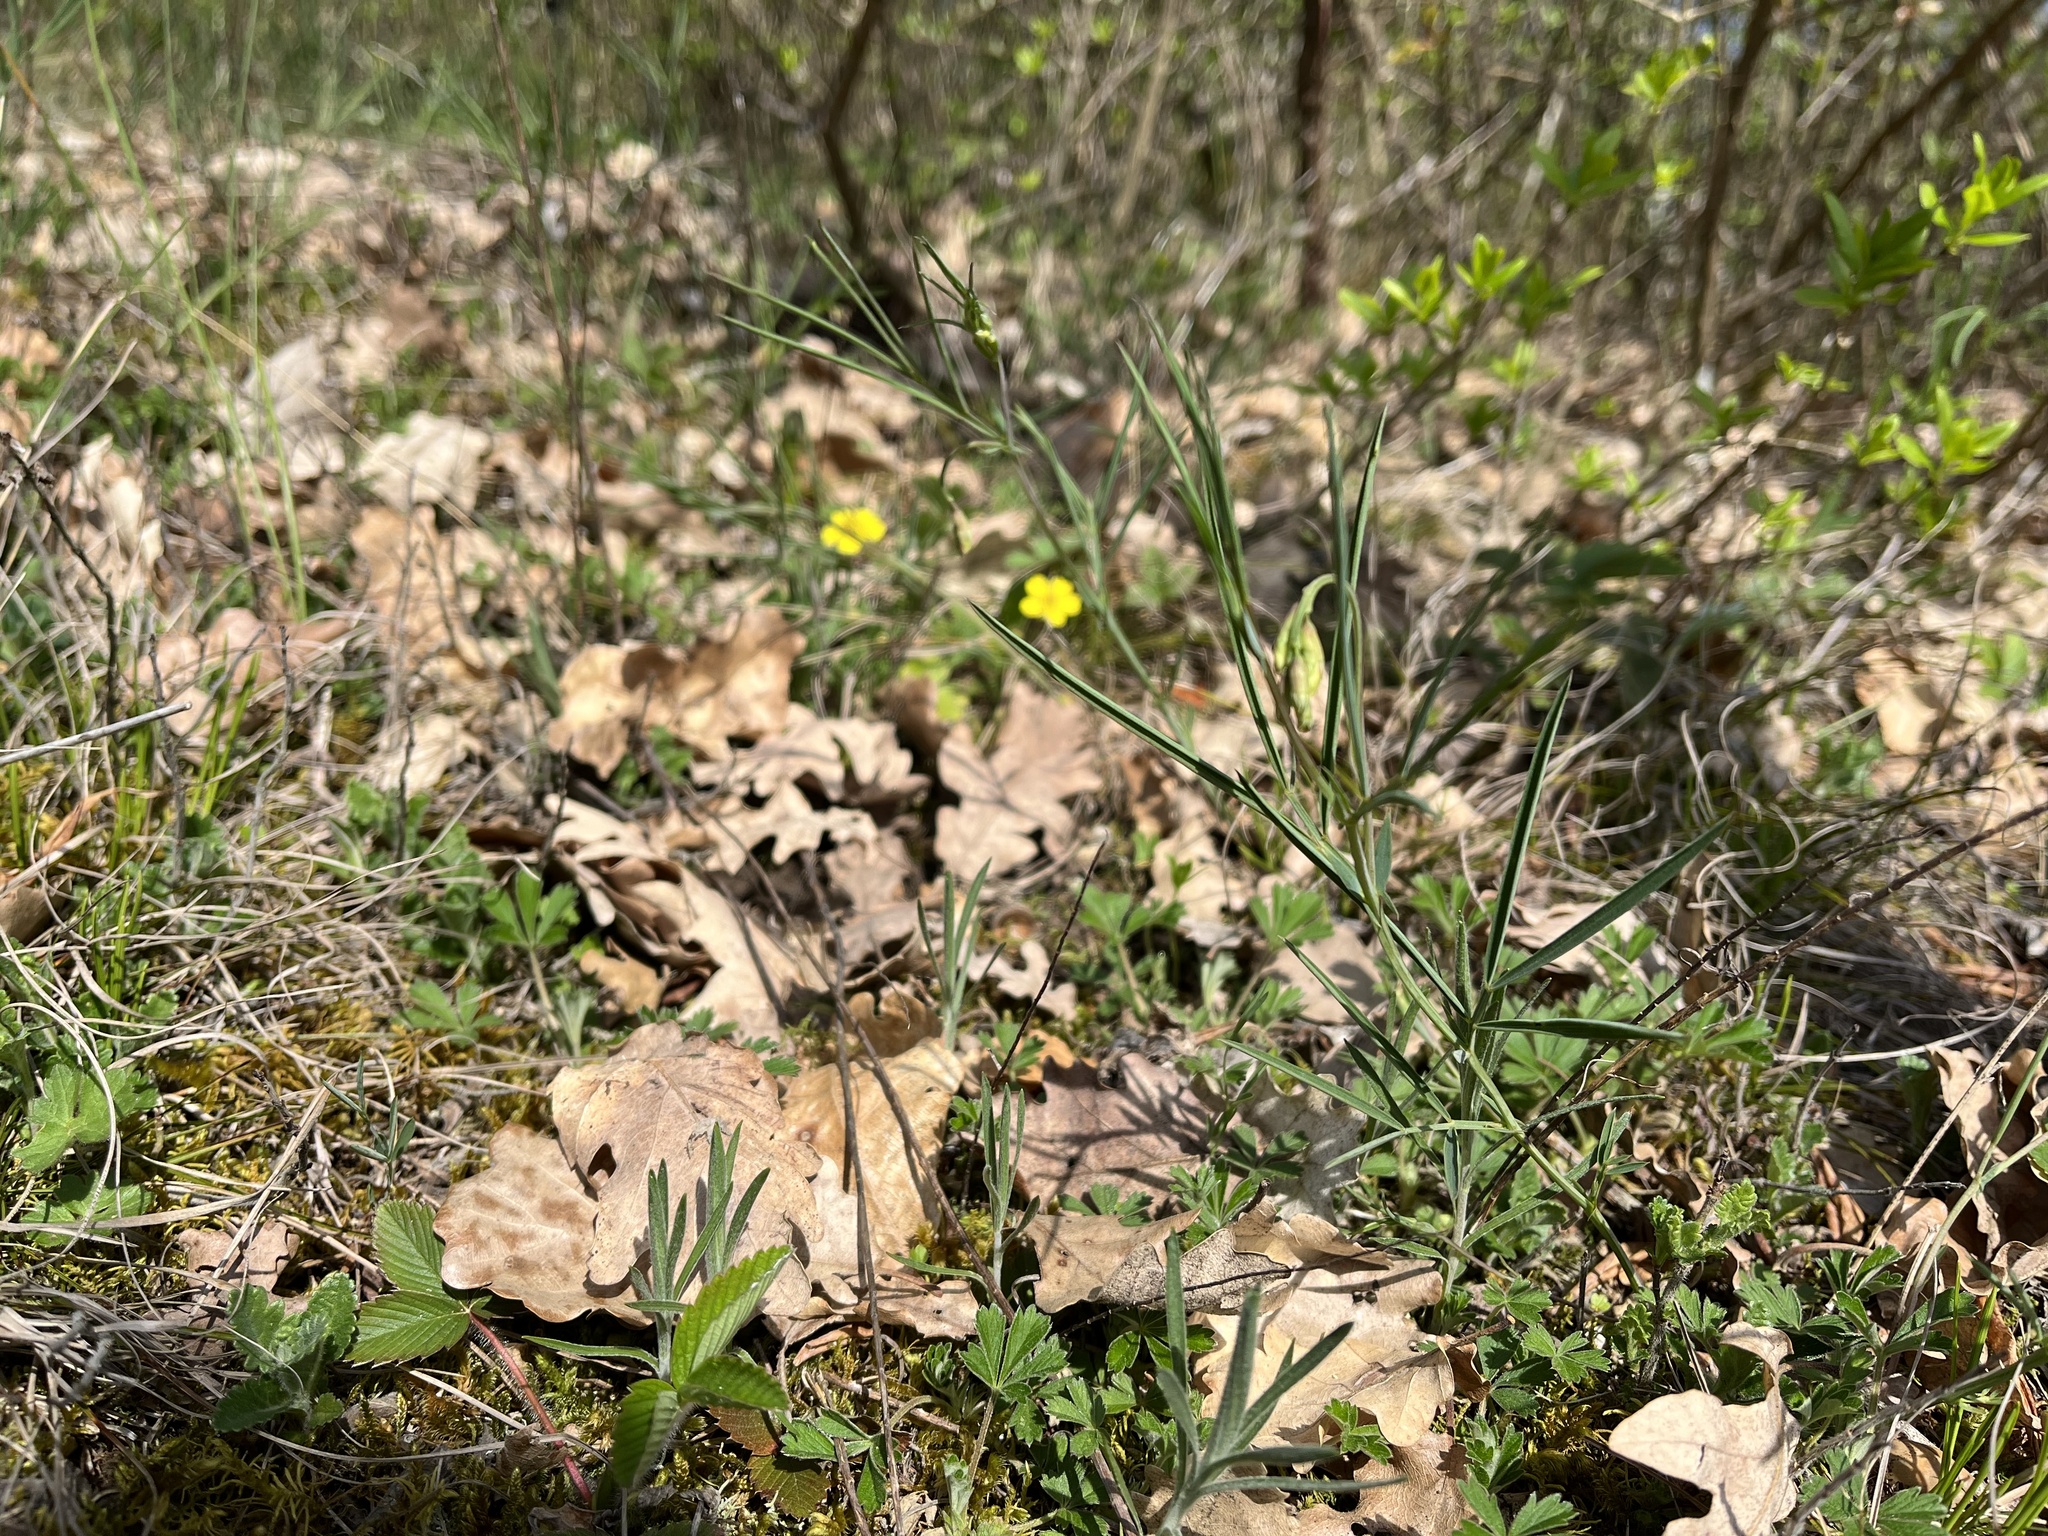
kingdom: Plantae
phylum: Tracheophyta
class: Magnoliopsida
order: Fabales
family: Fabaceae
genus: Lathyrus
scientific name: Lathyrus pannonicus
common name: Pea
